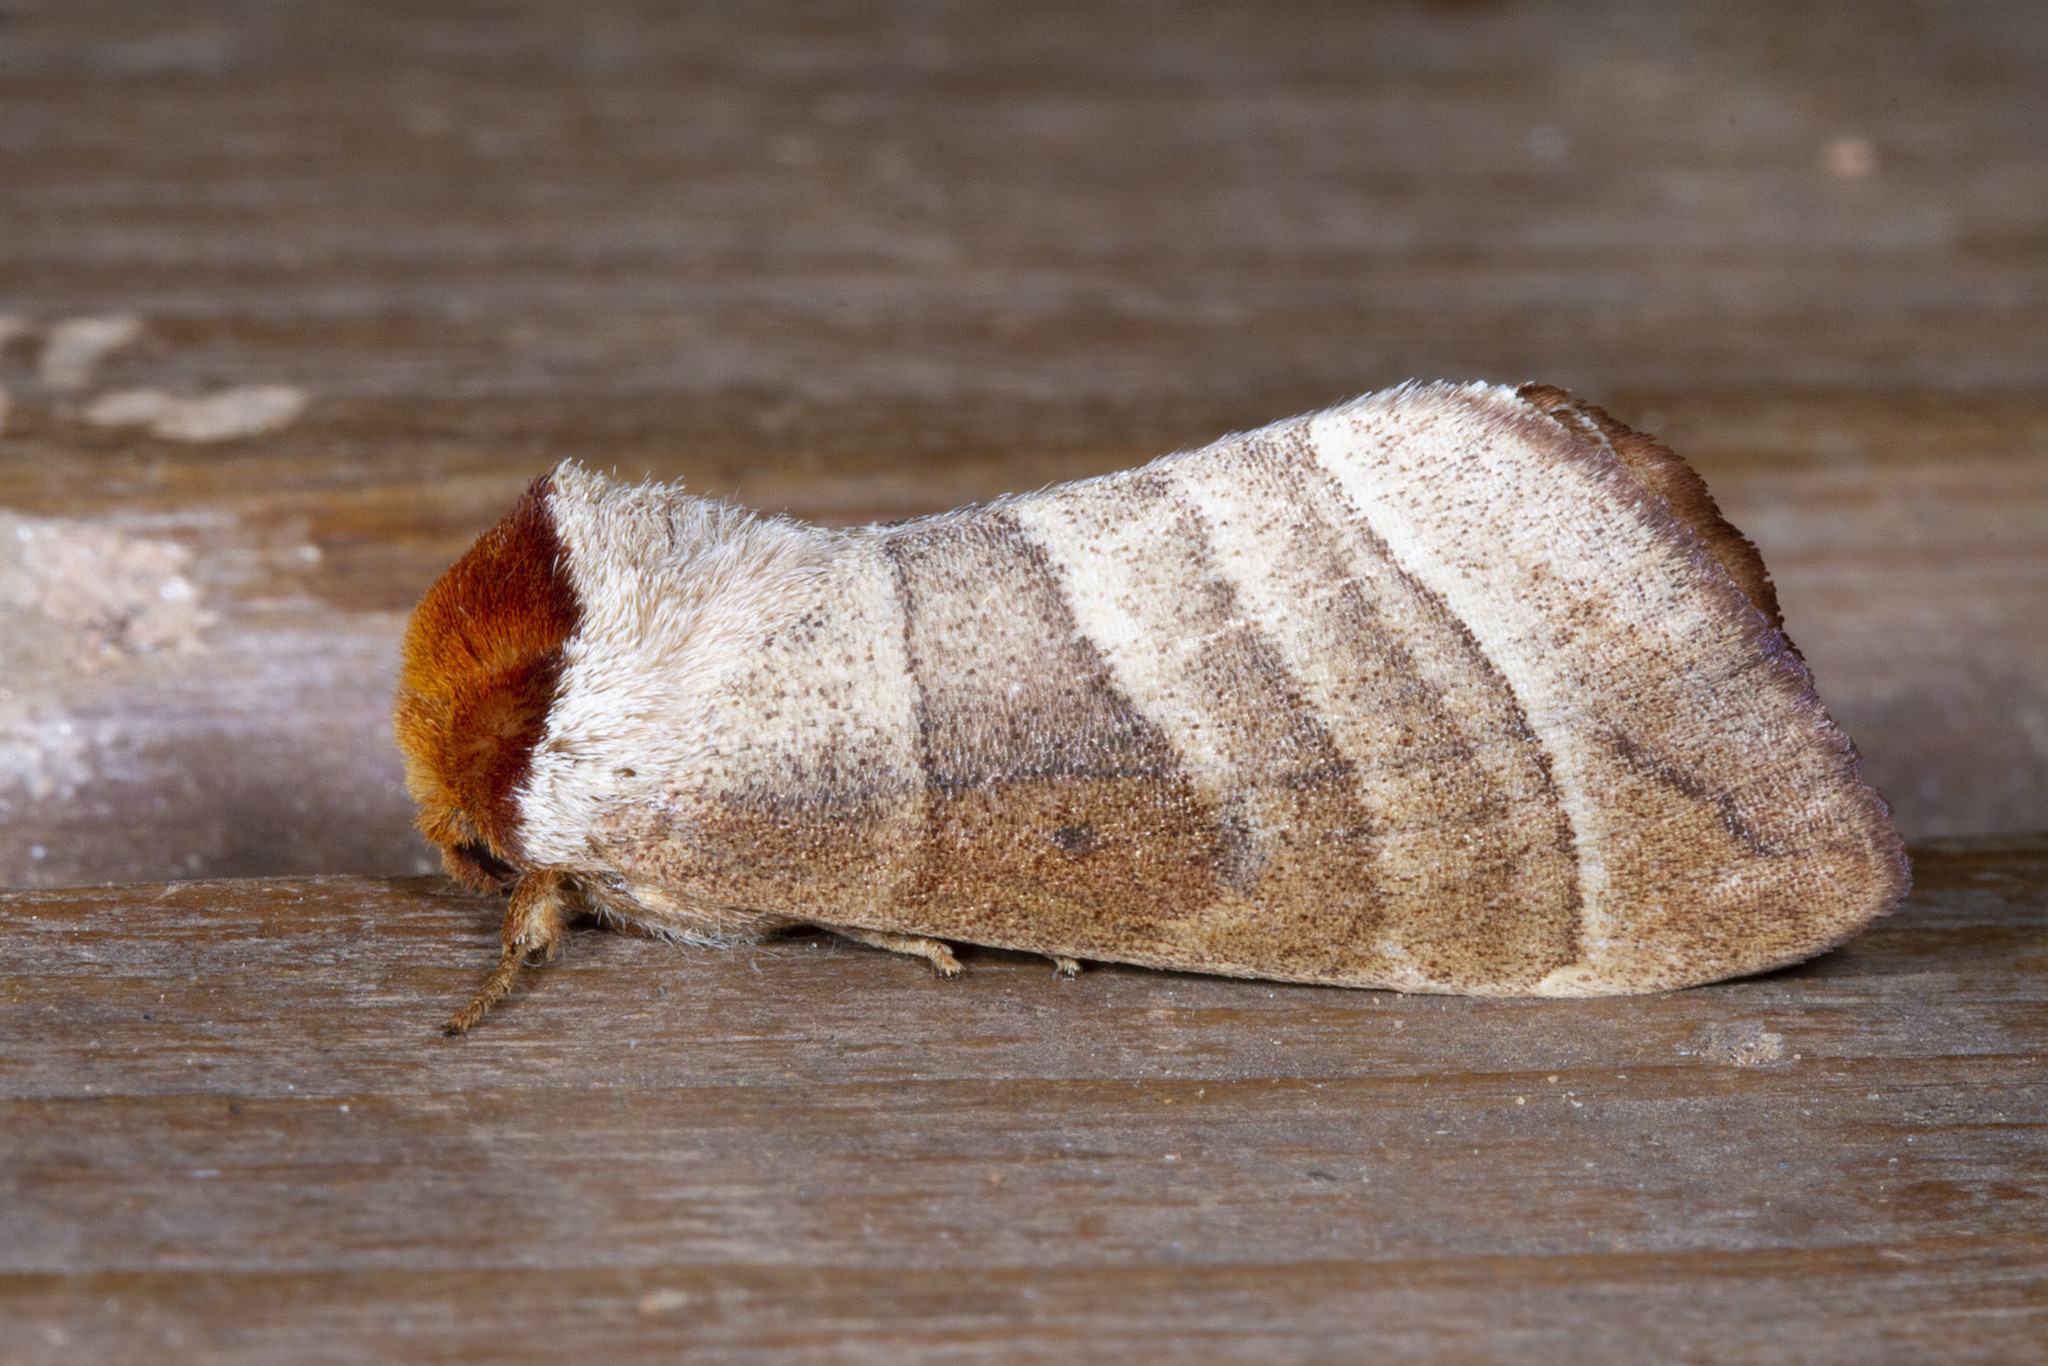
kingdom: Animalia
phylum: Arthropoda
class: Insecta
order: Lepidoptera
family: Notodontidae
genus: Datana
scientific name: Datana integerrima
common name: Walnut caterpillar
